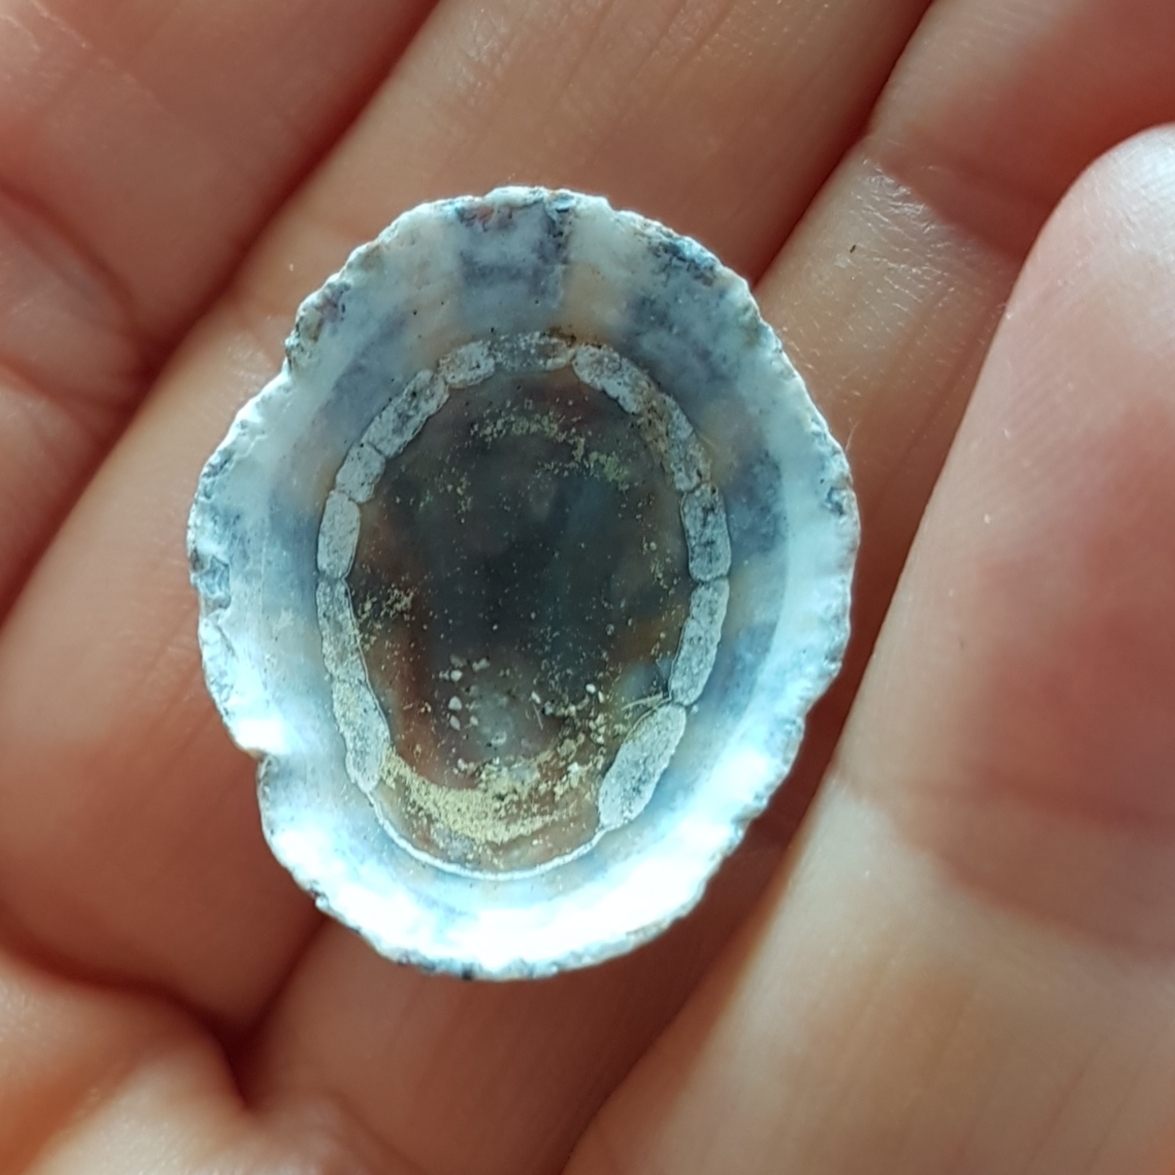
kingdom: Animalia
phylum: Mollusca
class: Gastropoda
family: Patellidae
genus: Patella
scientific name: Patella rustica
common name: Lusitanian limpet
